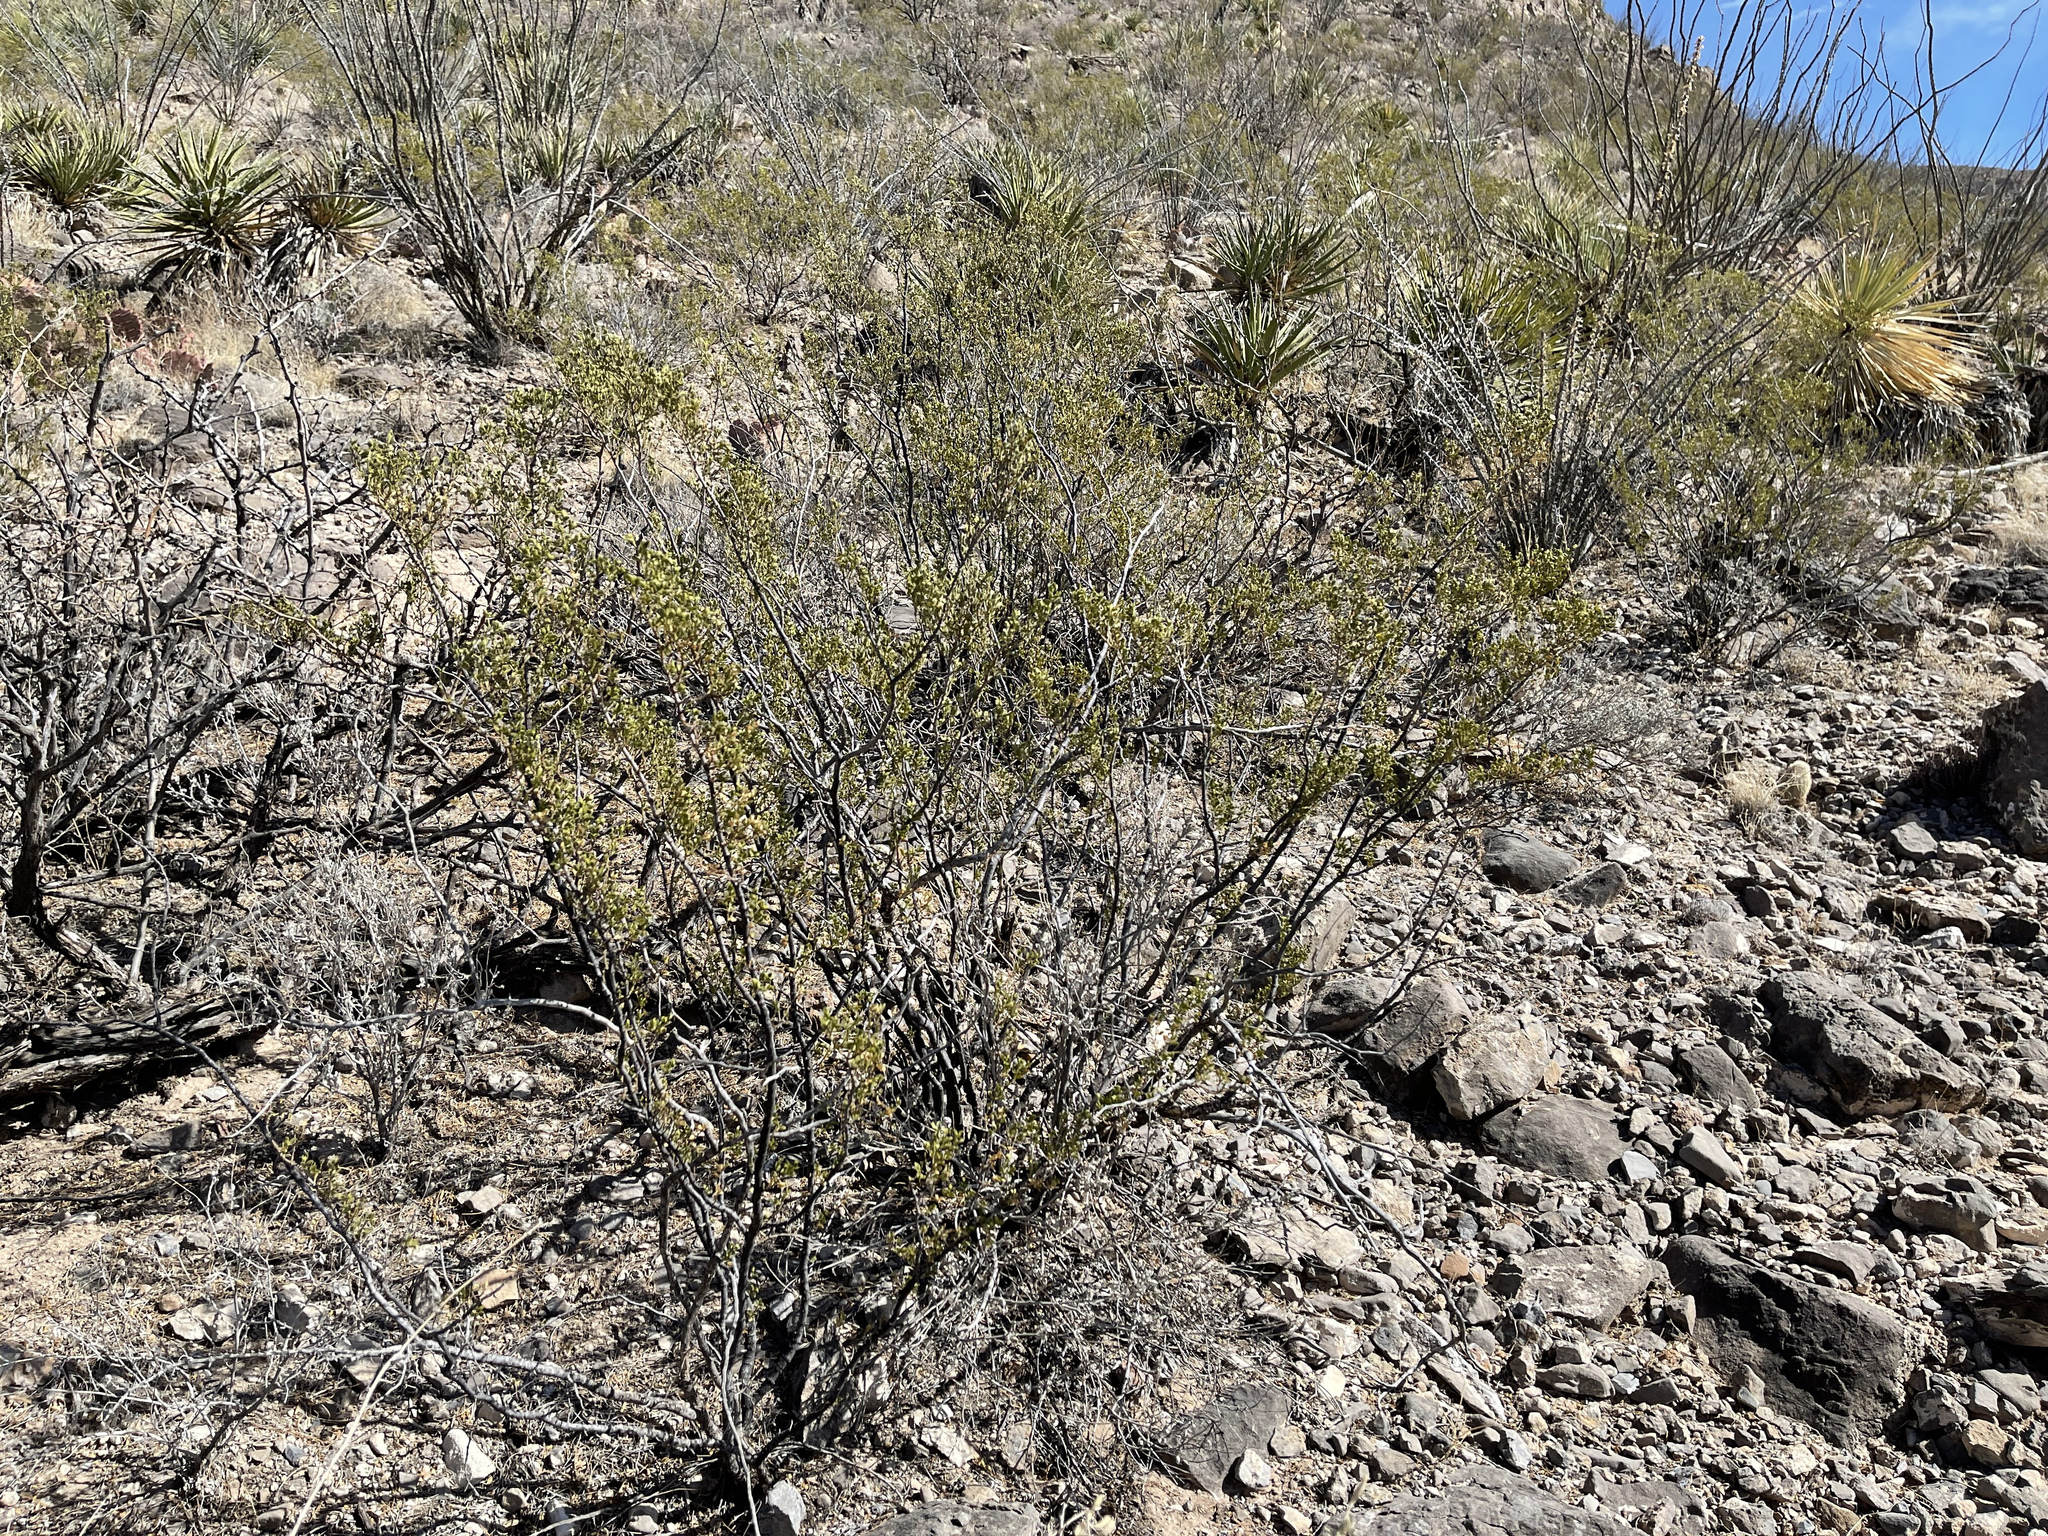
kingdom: Plantae
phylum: Tracheophyta
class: Magnoliopsida
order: Zygophyllales
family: Zygophyllaceae
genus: Larrea
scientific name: Larrea tridentata
